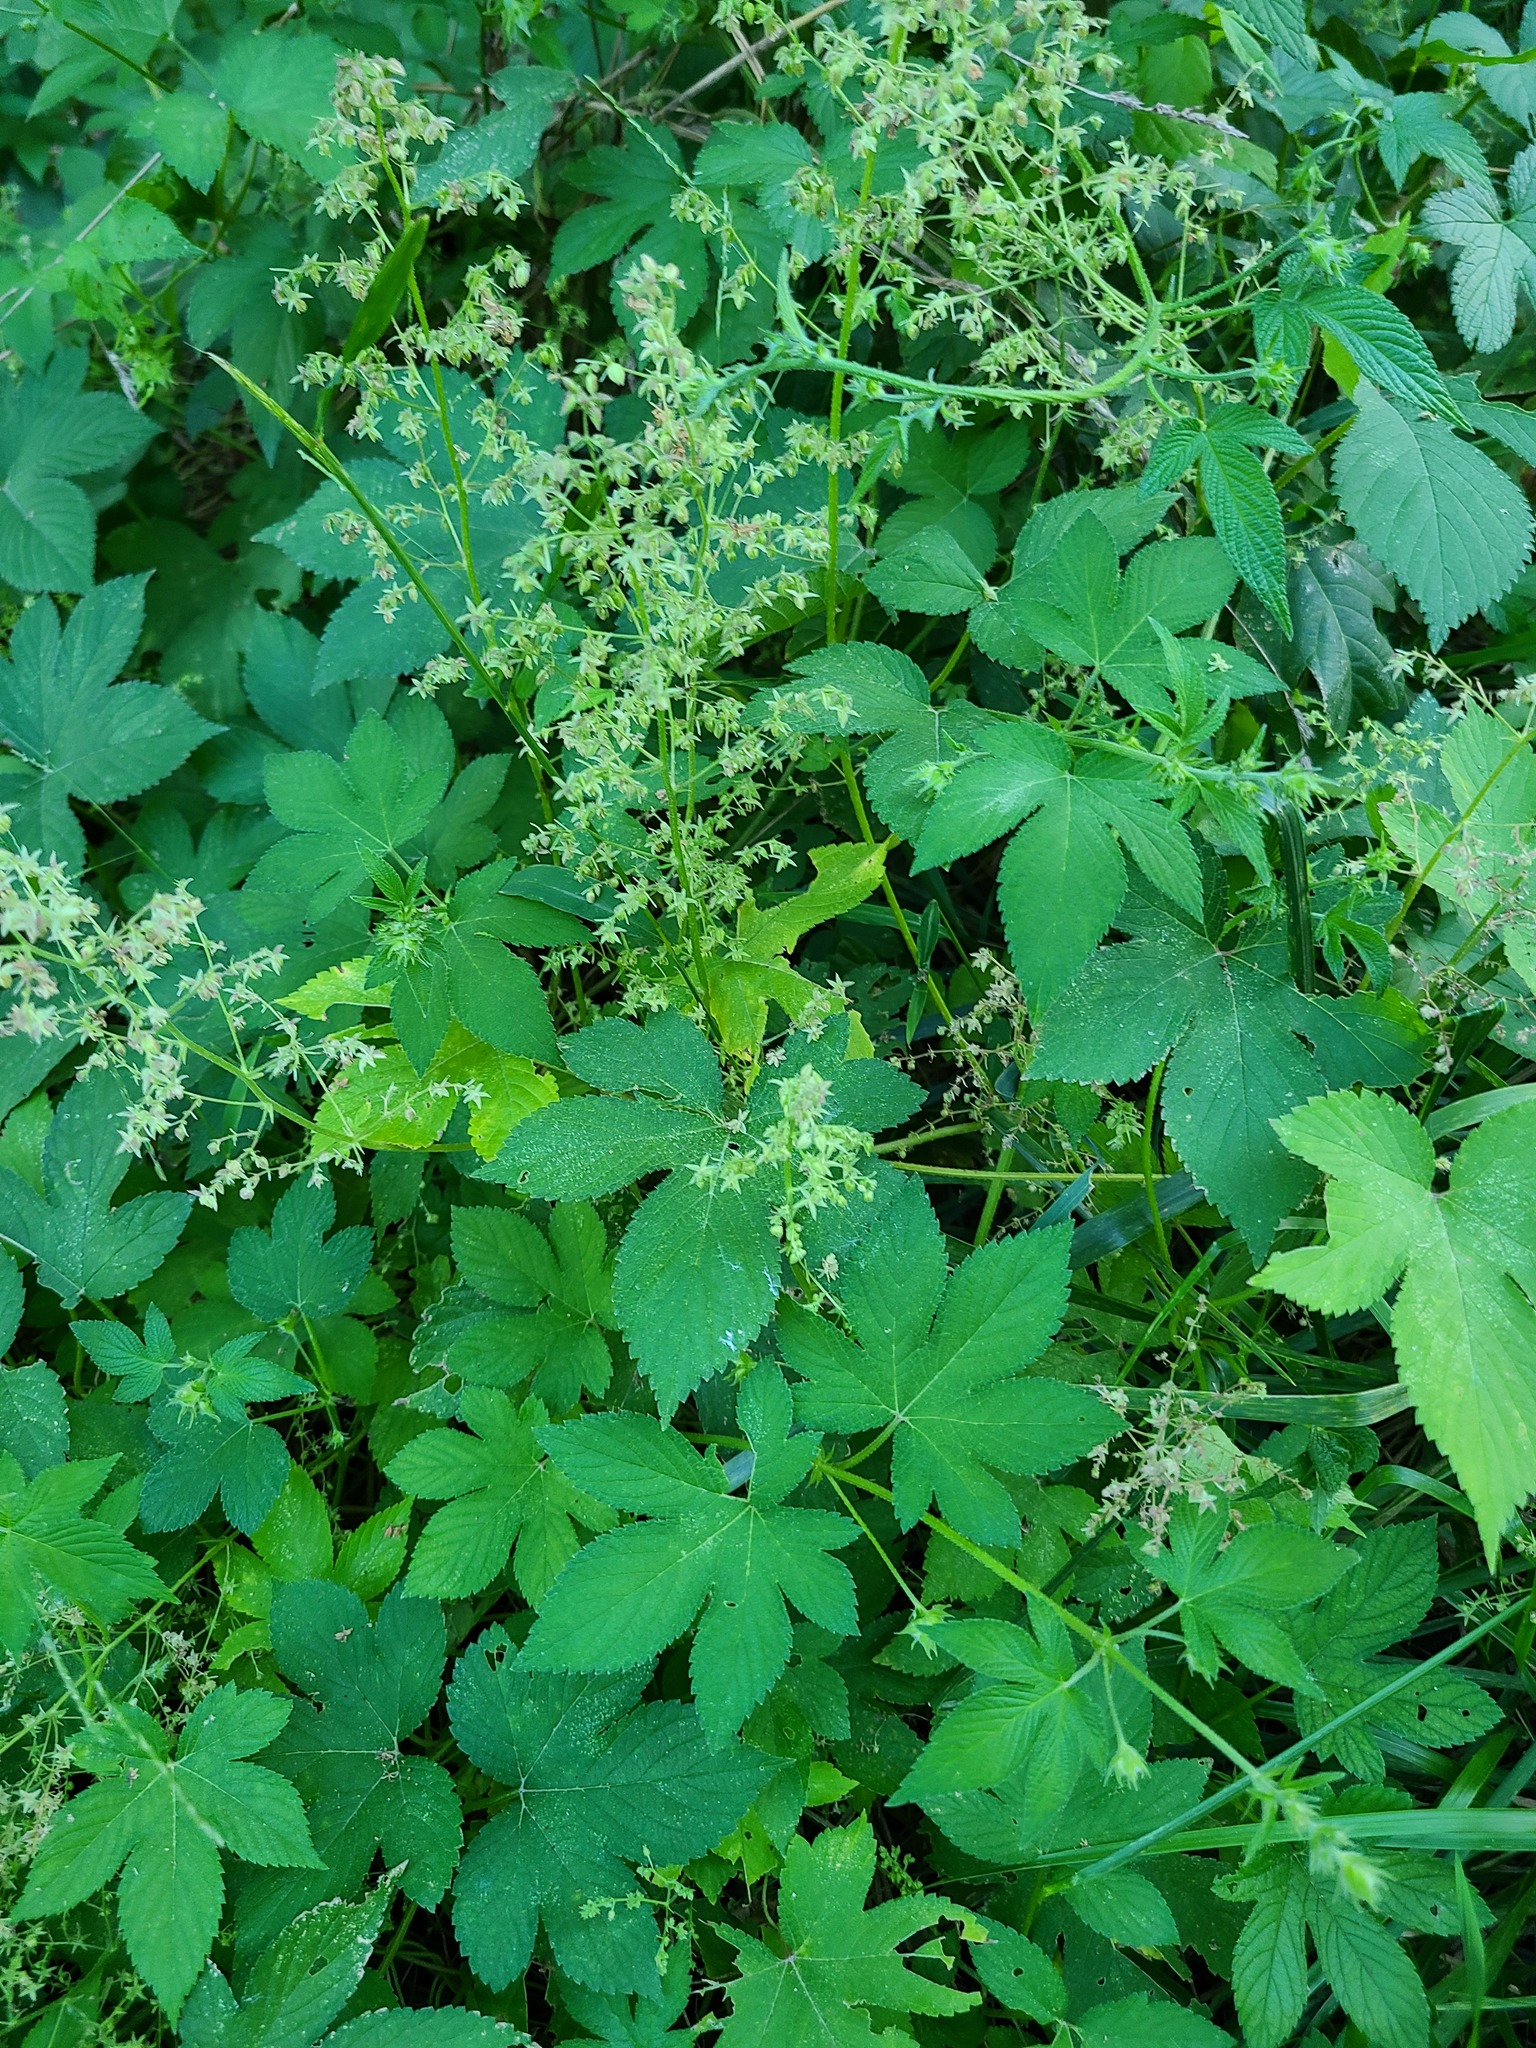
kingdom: Plantae
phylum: Tracheophyta
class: Magnoliopsida
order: Rosales
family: Cannabaceae
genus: Humulus
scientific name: Humulus scandens
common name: Japanese hop
